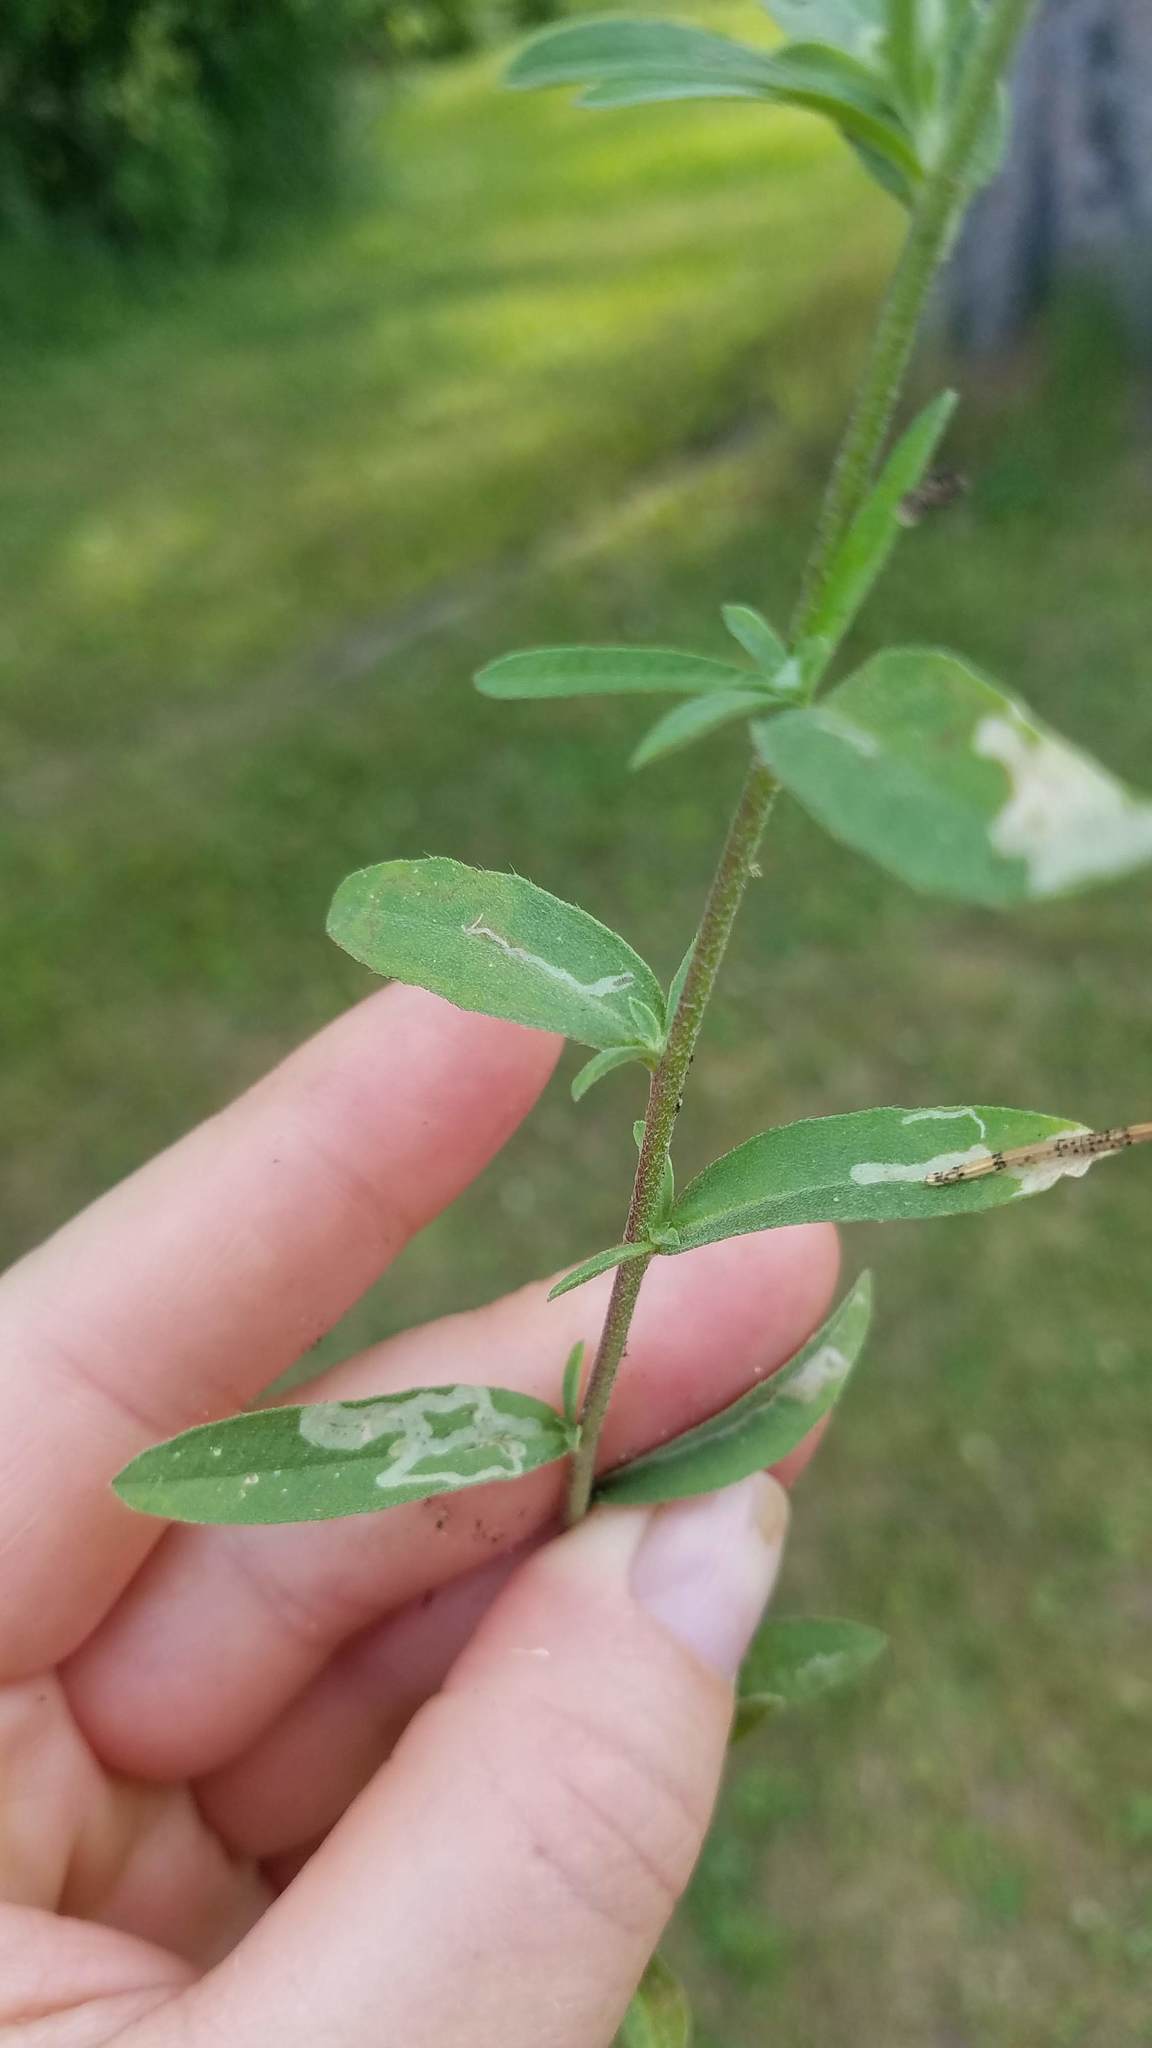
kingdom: Plantae
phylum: Tracheophyta
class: Magnoliopsida
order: Brassicales
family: Brassicaceae
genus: Berteroa
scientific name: Berteroa incana
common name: Hoary alison
